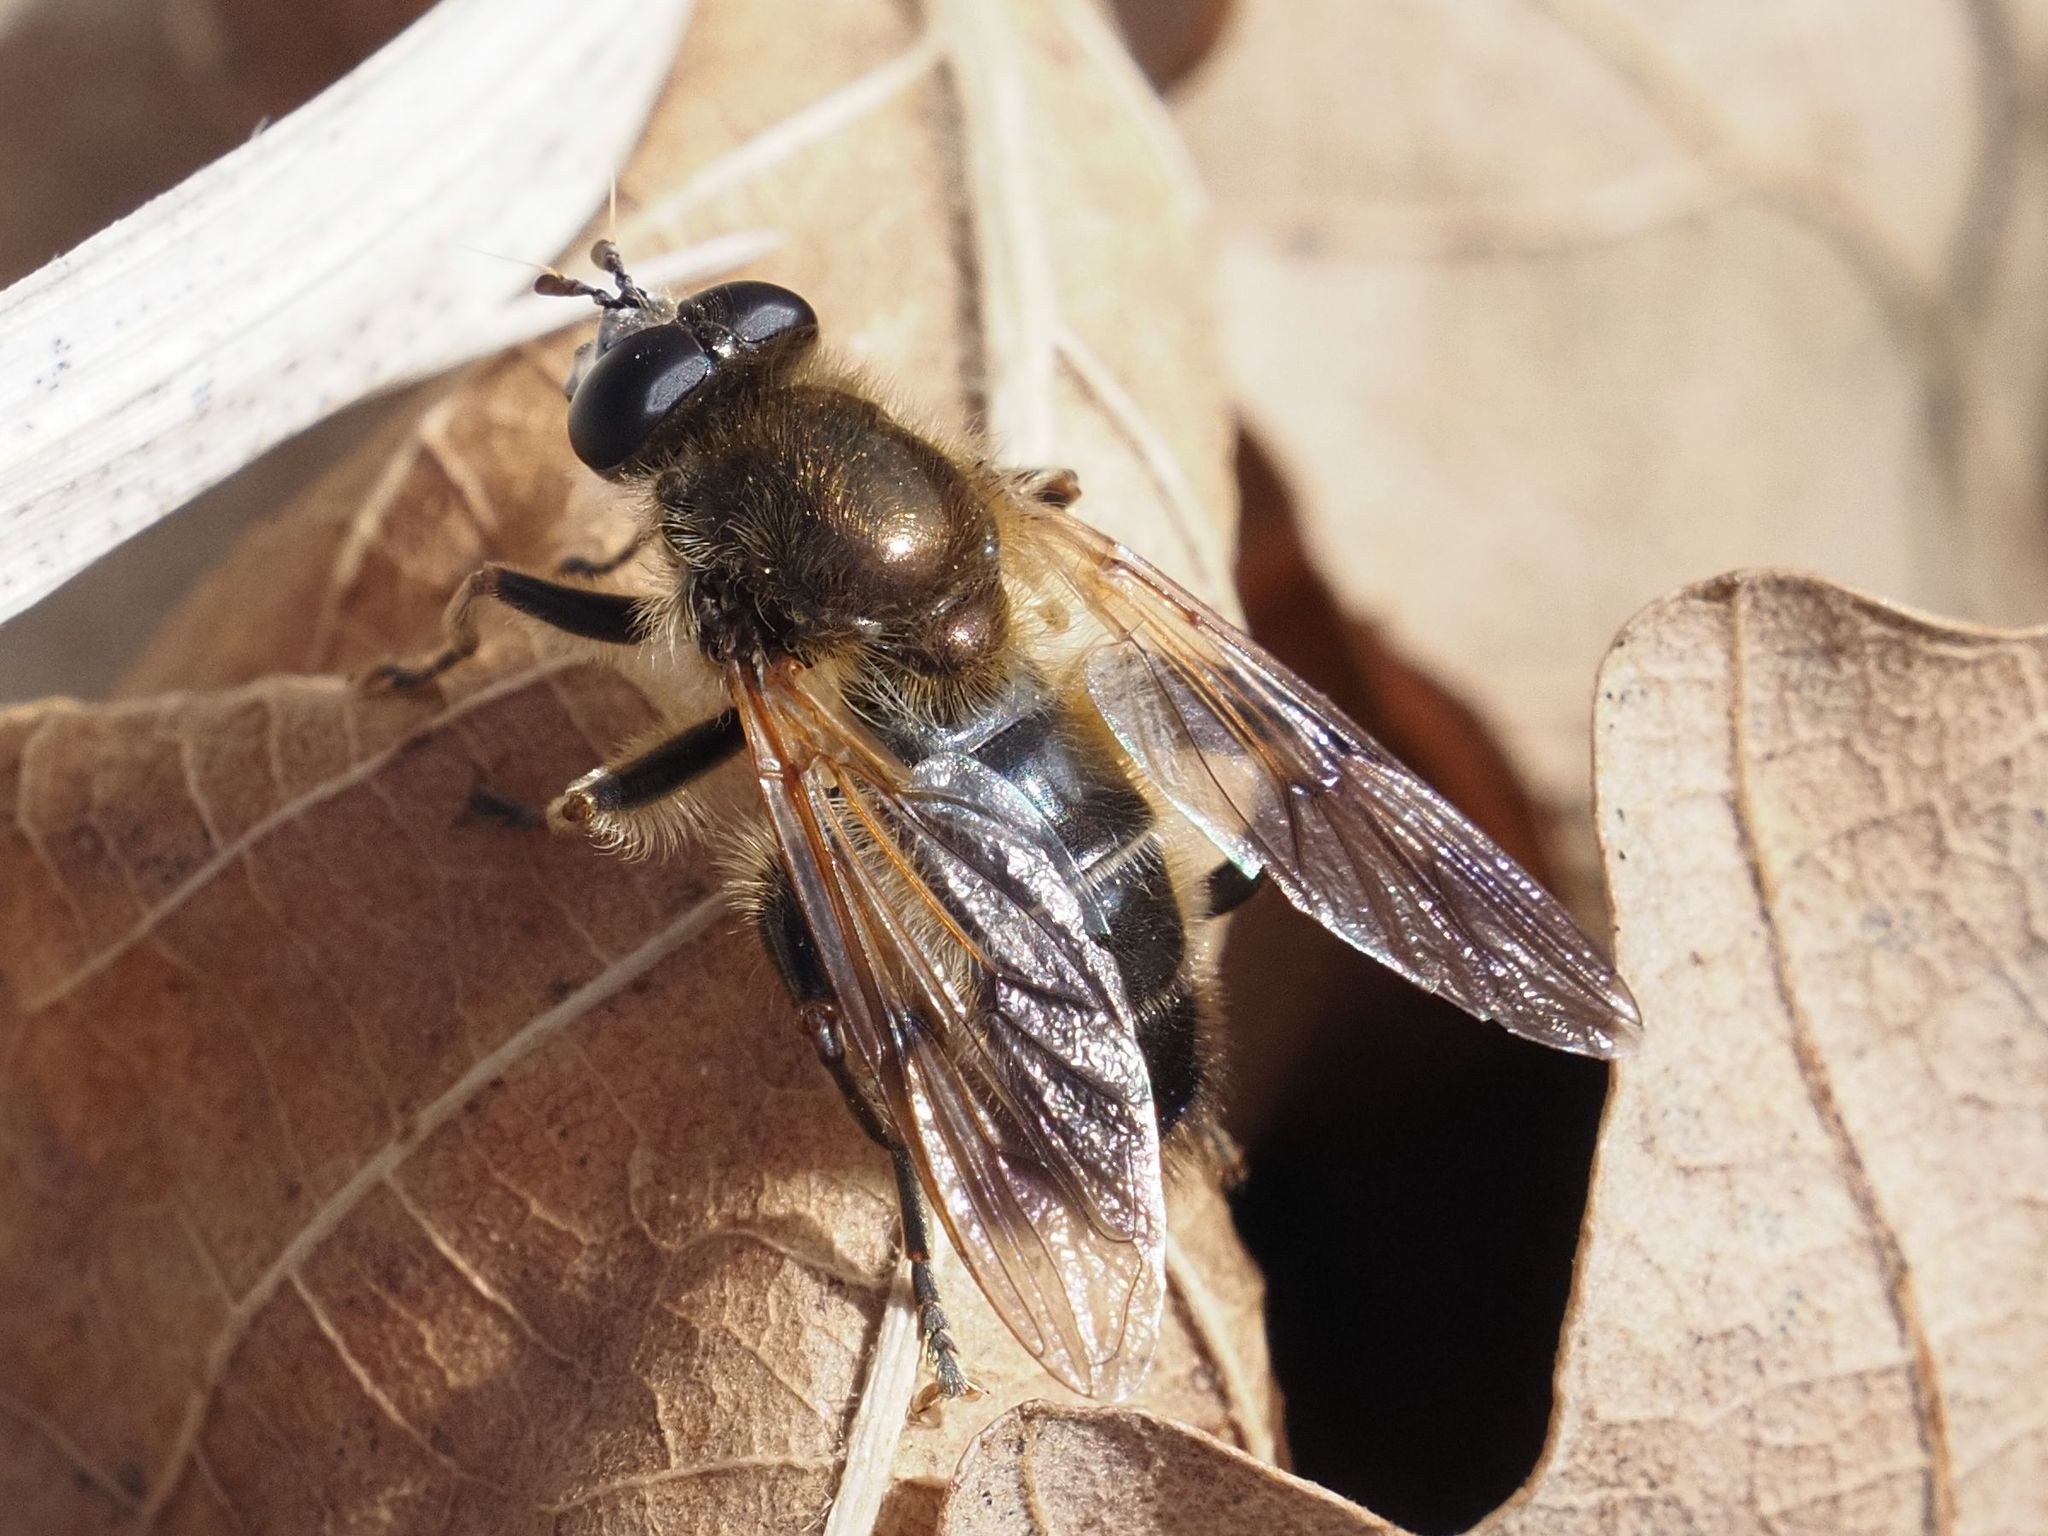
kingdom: Animalia
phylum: Arthropoda
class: Insecta
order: Diptera
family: Syrphidae
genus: Brachypalpus
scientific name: Brachypalpus valgus
